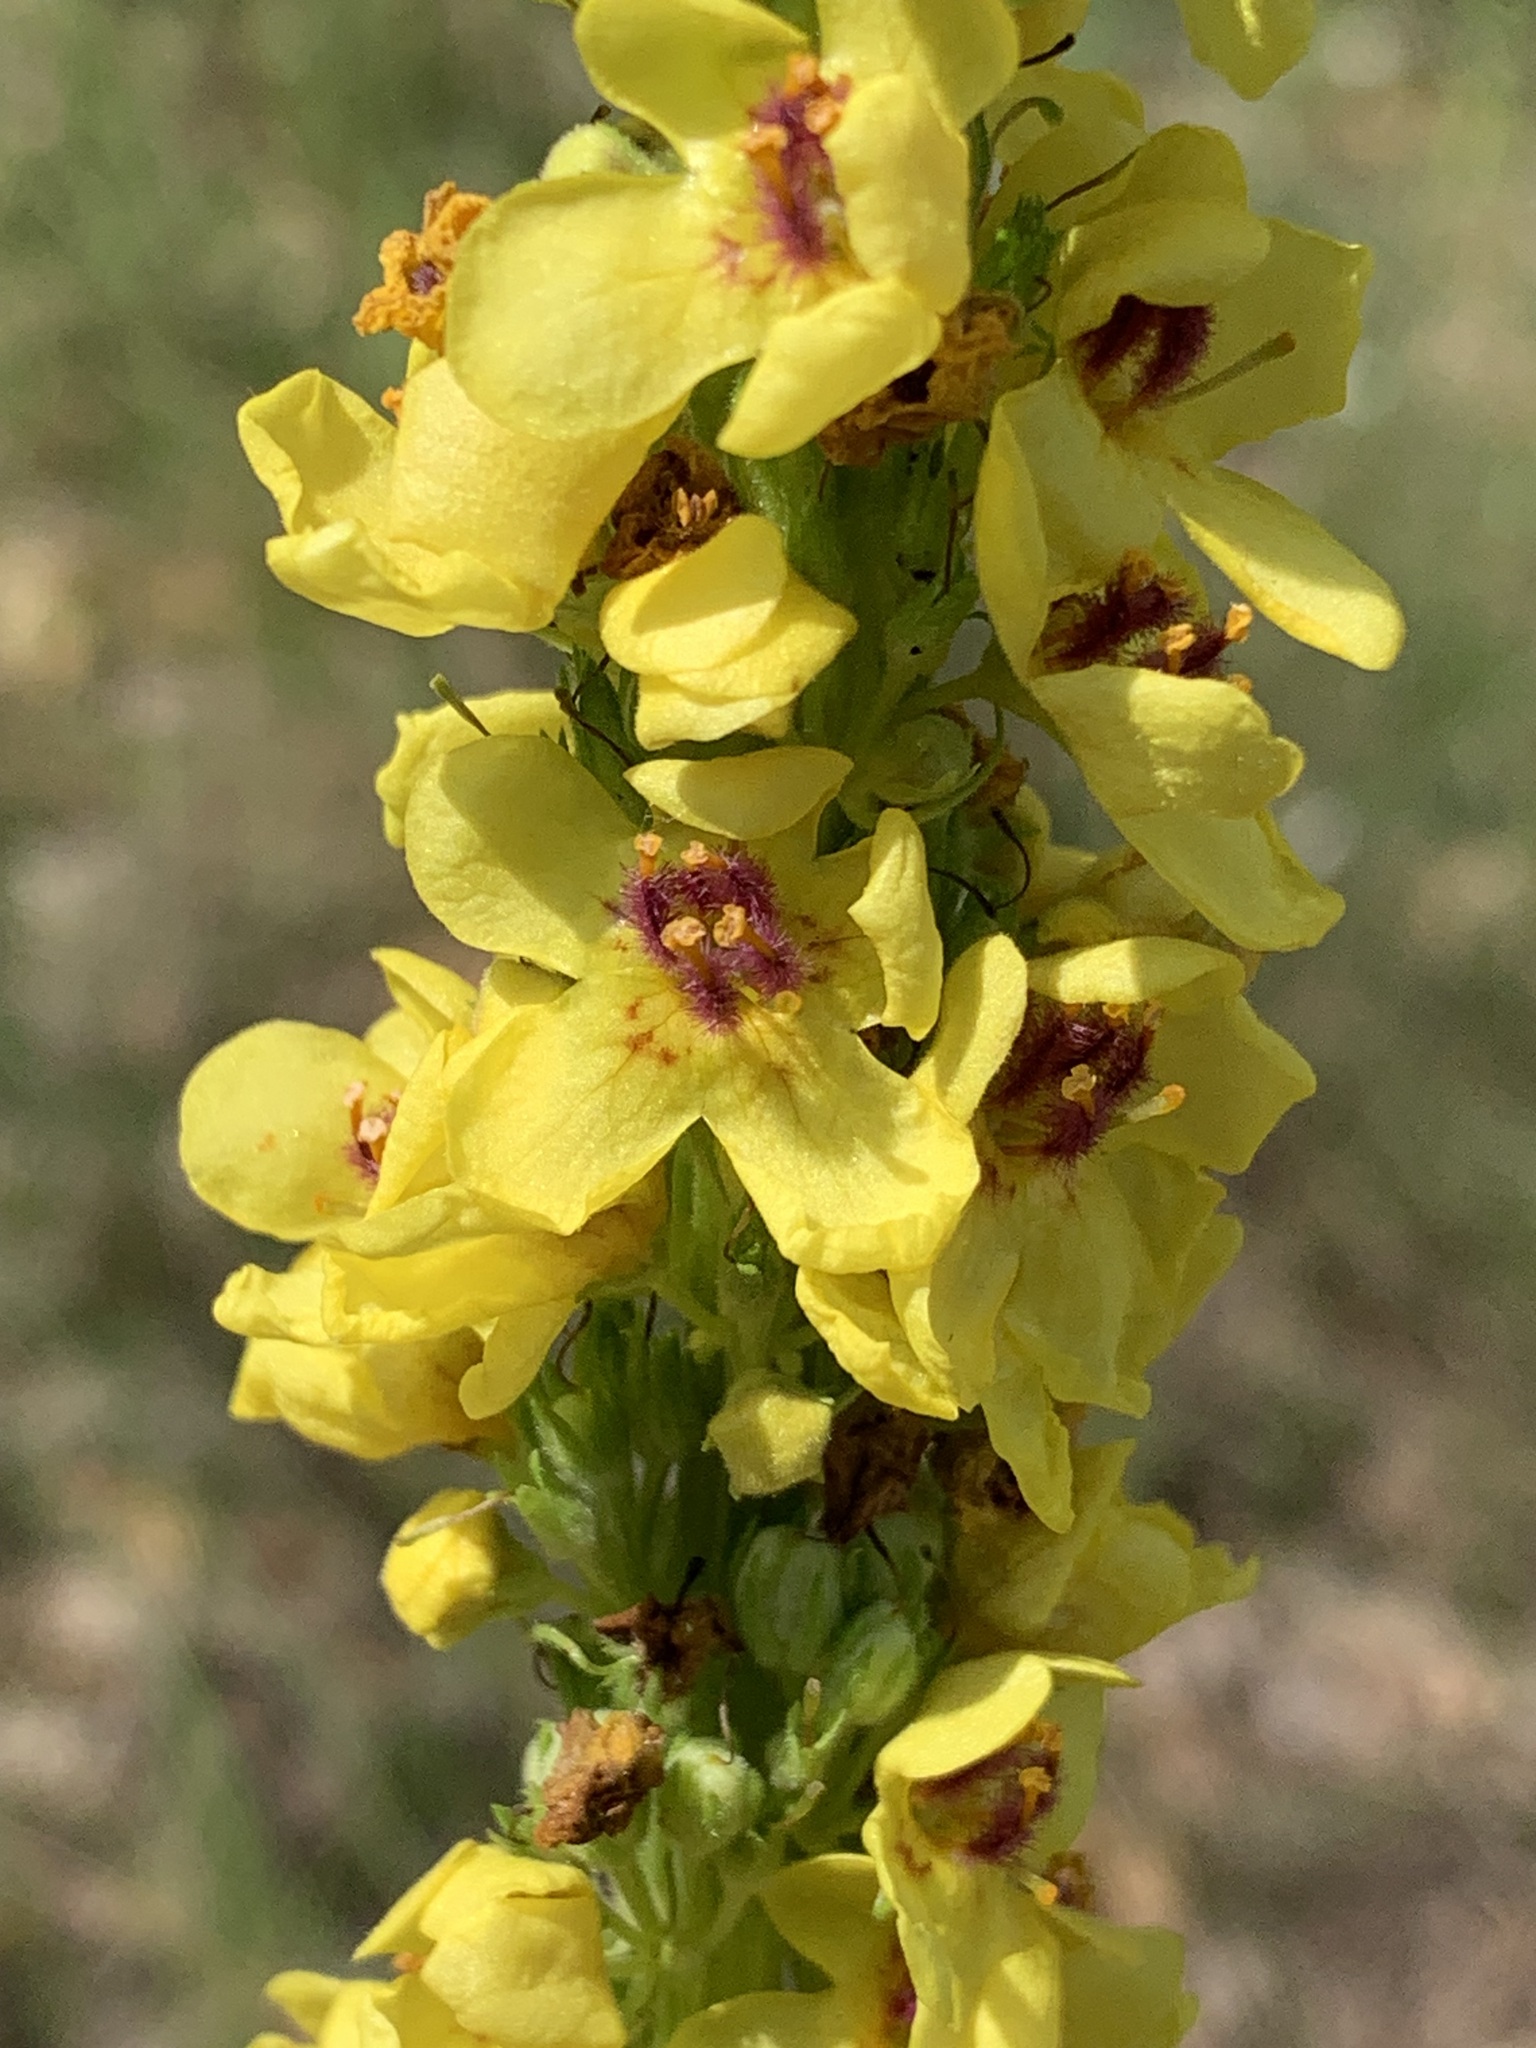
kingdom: Plantae
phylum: Tracheophyta
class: Magnoliopsida
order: Lamiales
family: Scrophulariaceae
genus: Verbascum
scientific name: Verbascum nigrum
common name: Dark mullein
